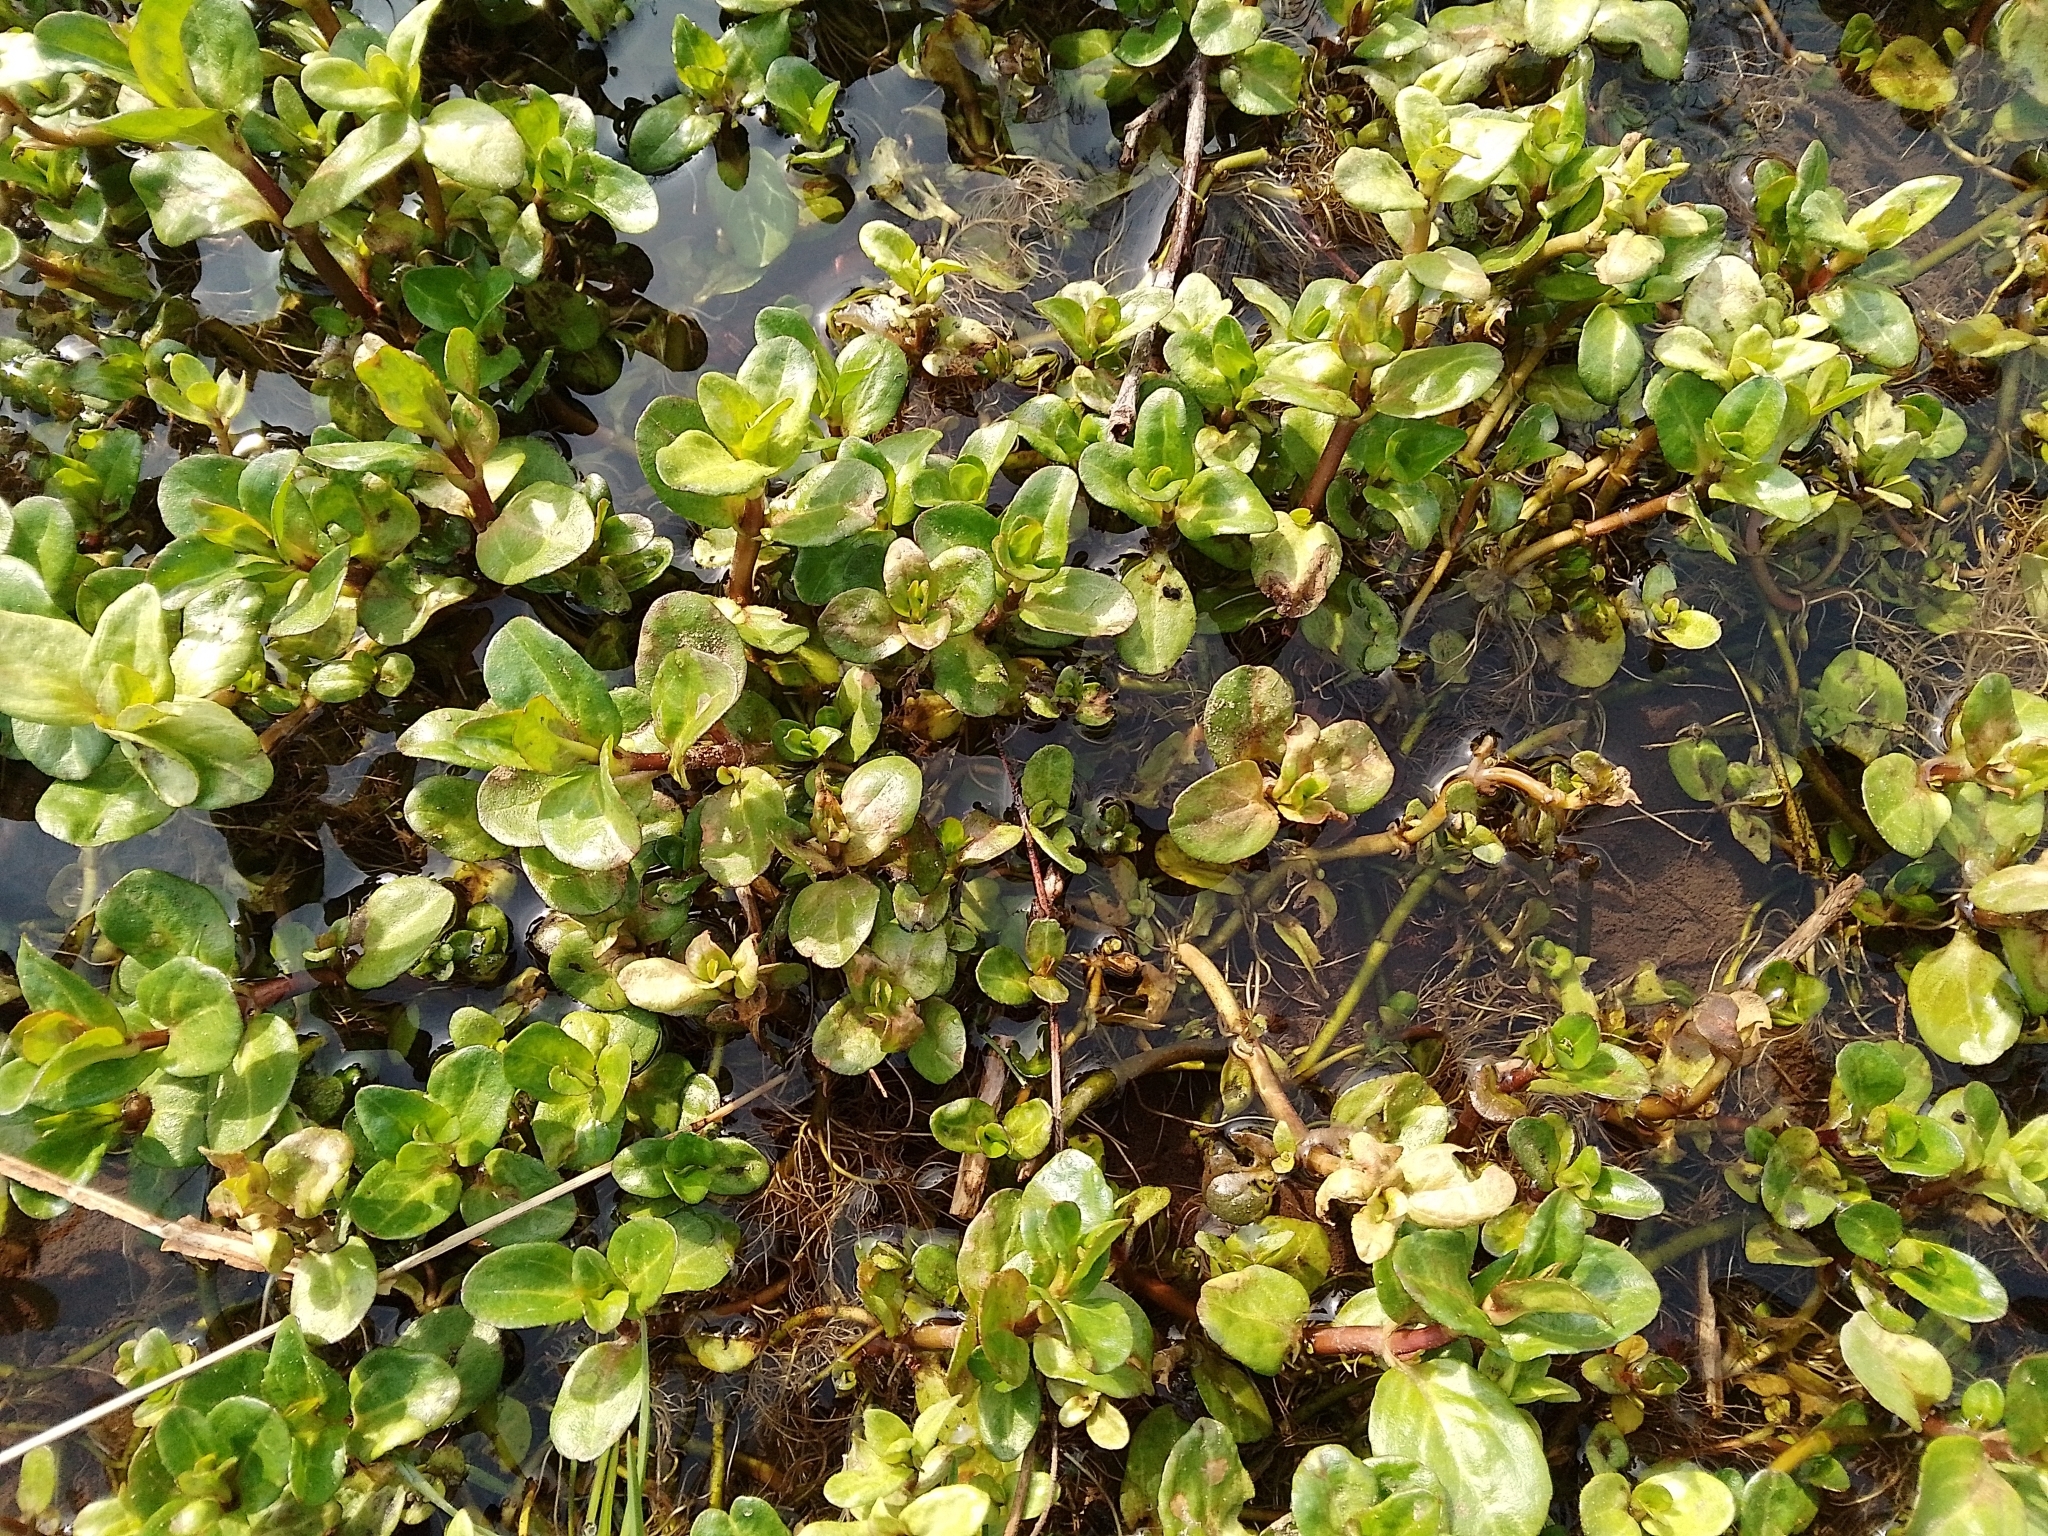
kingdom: Plantae
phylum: Tracheophyta
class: Magnoliopsida
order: Lamiales
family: Plantaginaceae
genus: Veronica
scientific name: Veronica beccabunga
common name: Brooklime
